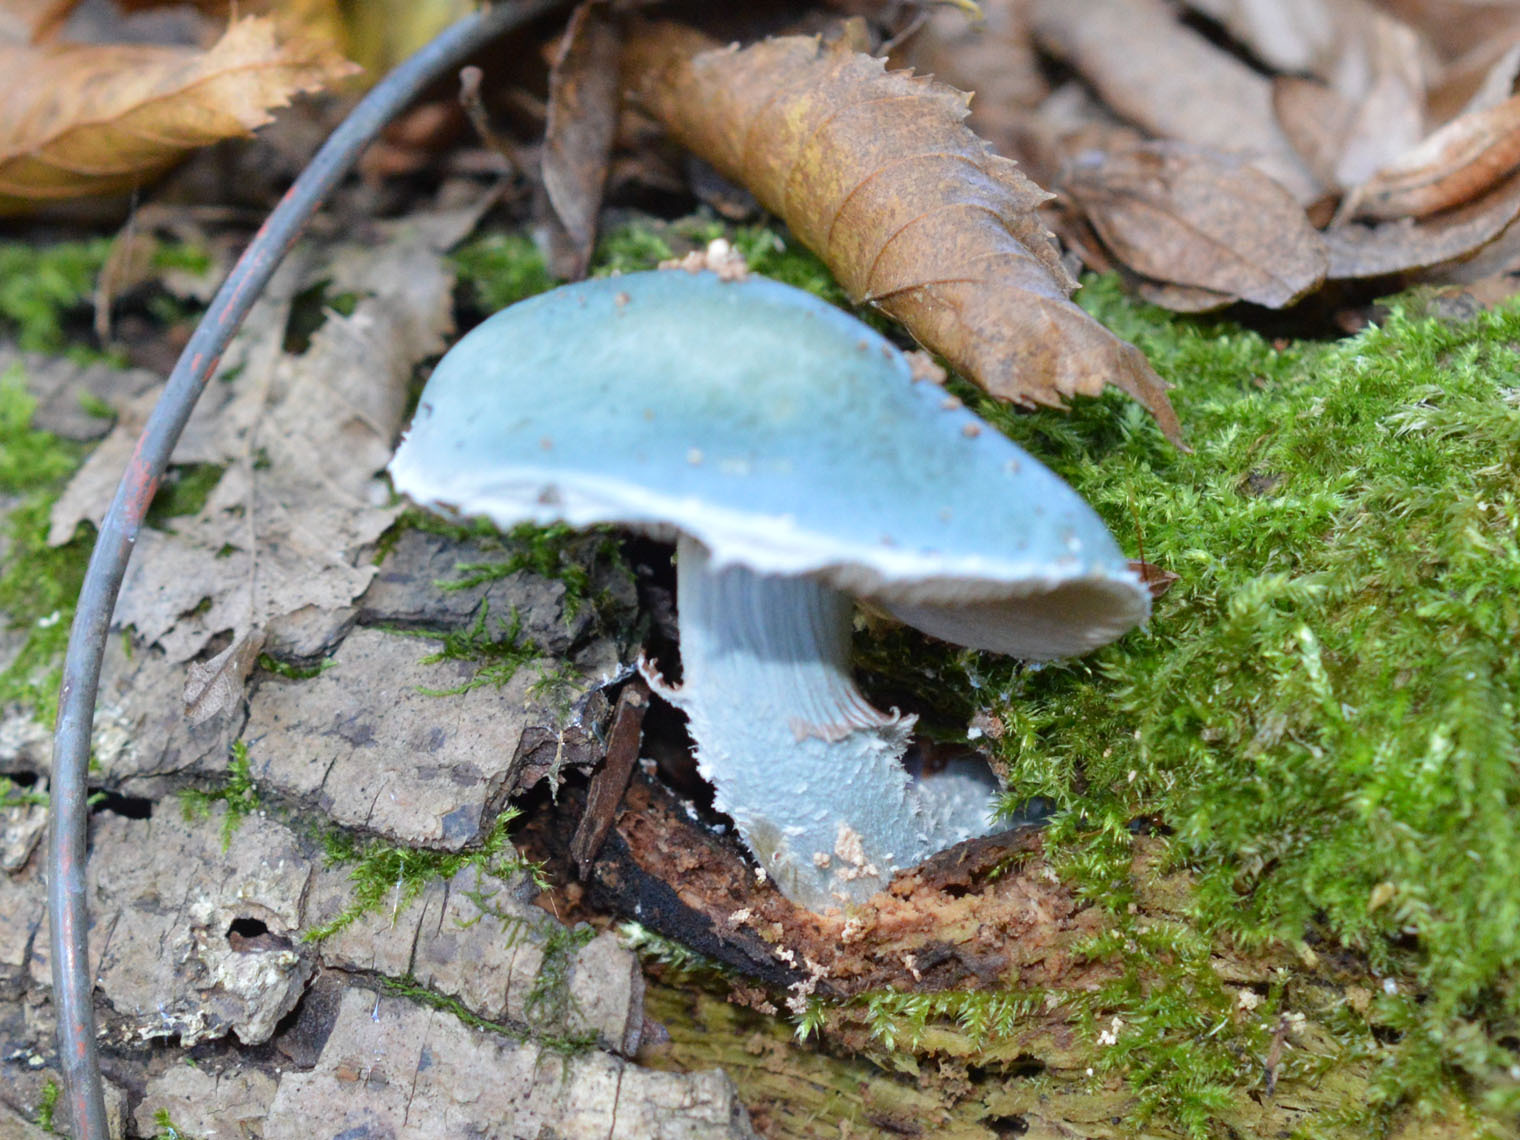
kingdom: Fungi
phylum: Basidiomycota
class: Agaricomycetes
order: Agaricales
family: Strophariaceae
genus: Stropharia
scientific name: Stropharia aeruginosa
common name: Verdigris roundhead
